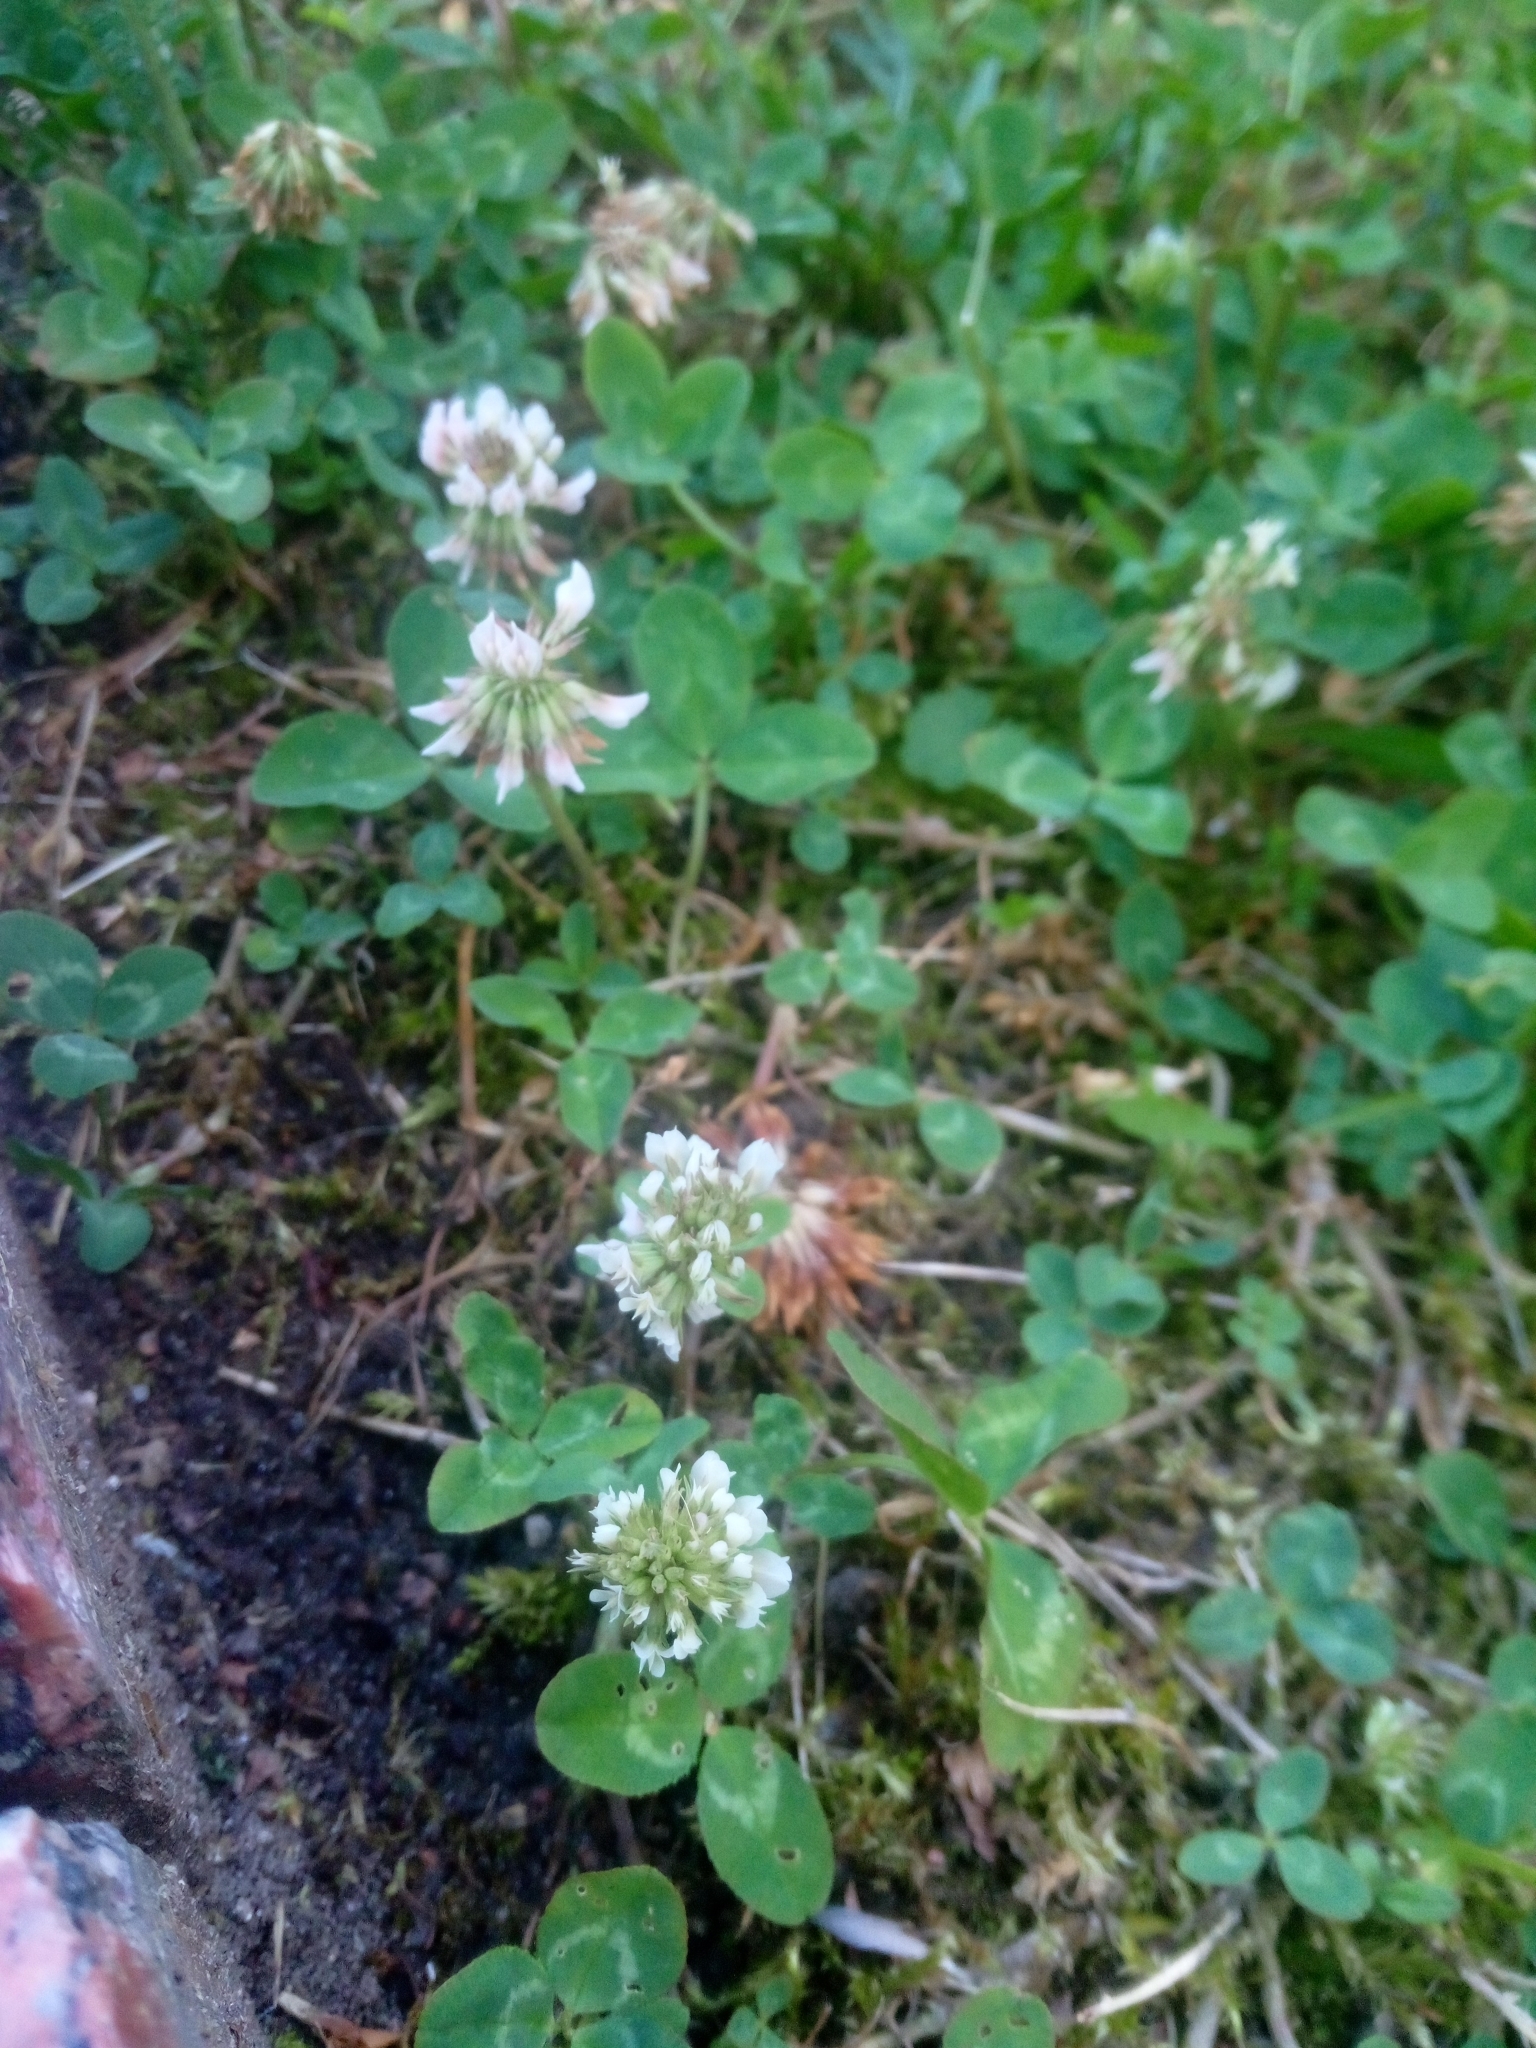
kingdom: Plantae
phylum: Tracheophyta
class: Magnoliopsida
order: Fabales
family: Fabaceae
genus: Trifolium
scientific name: Trifolium repens
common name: White clover
